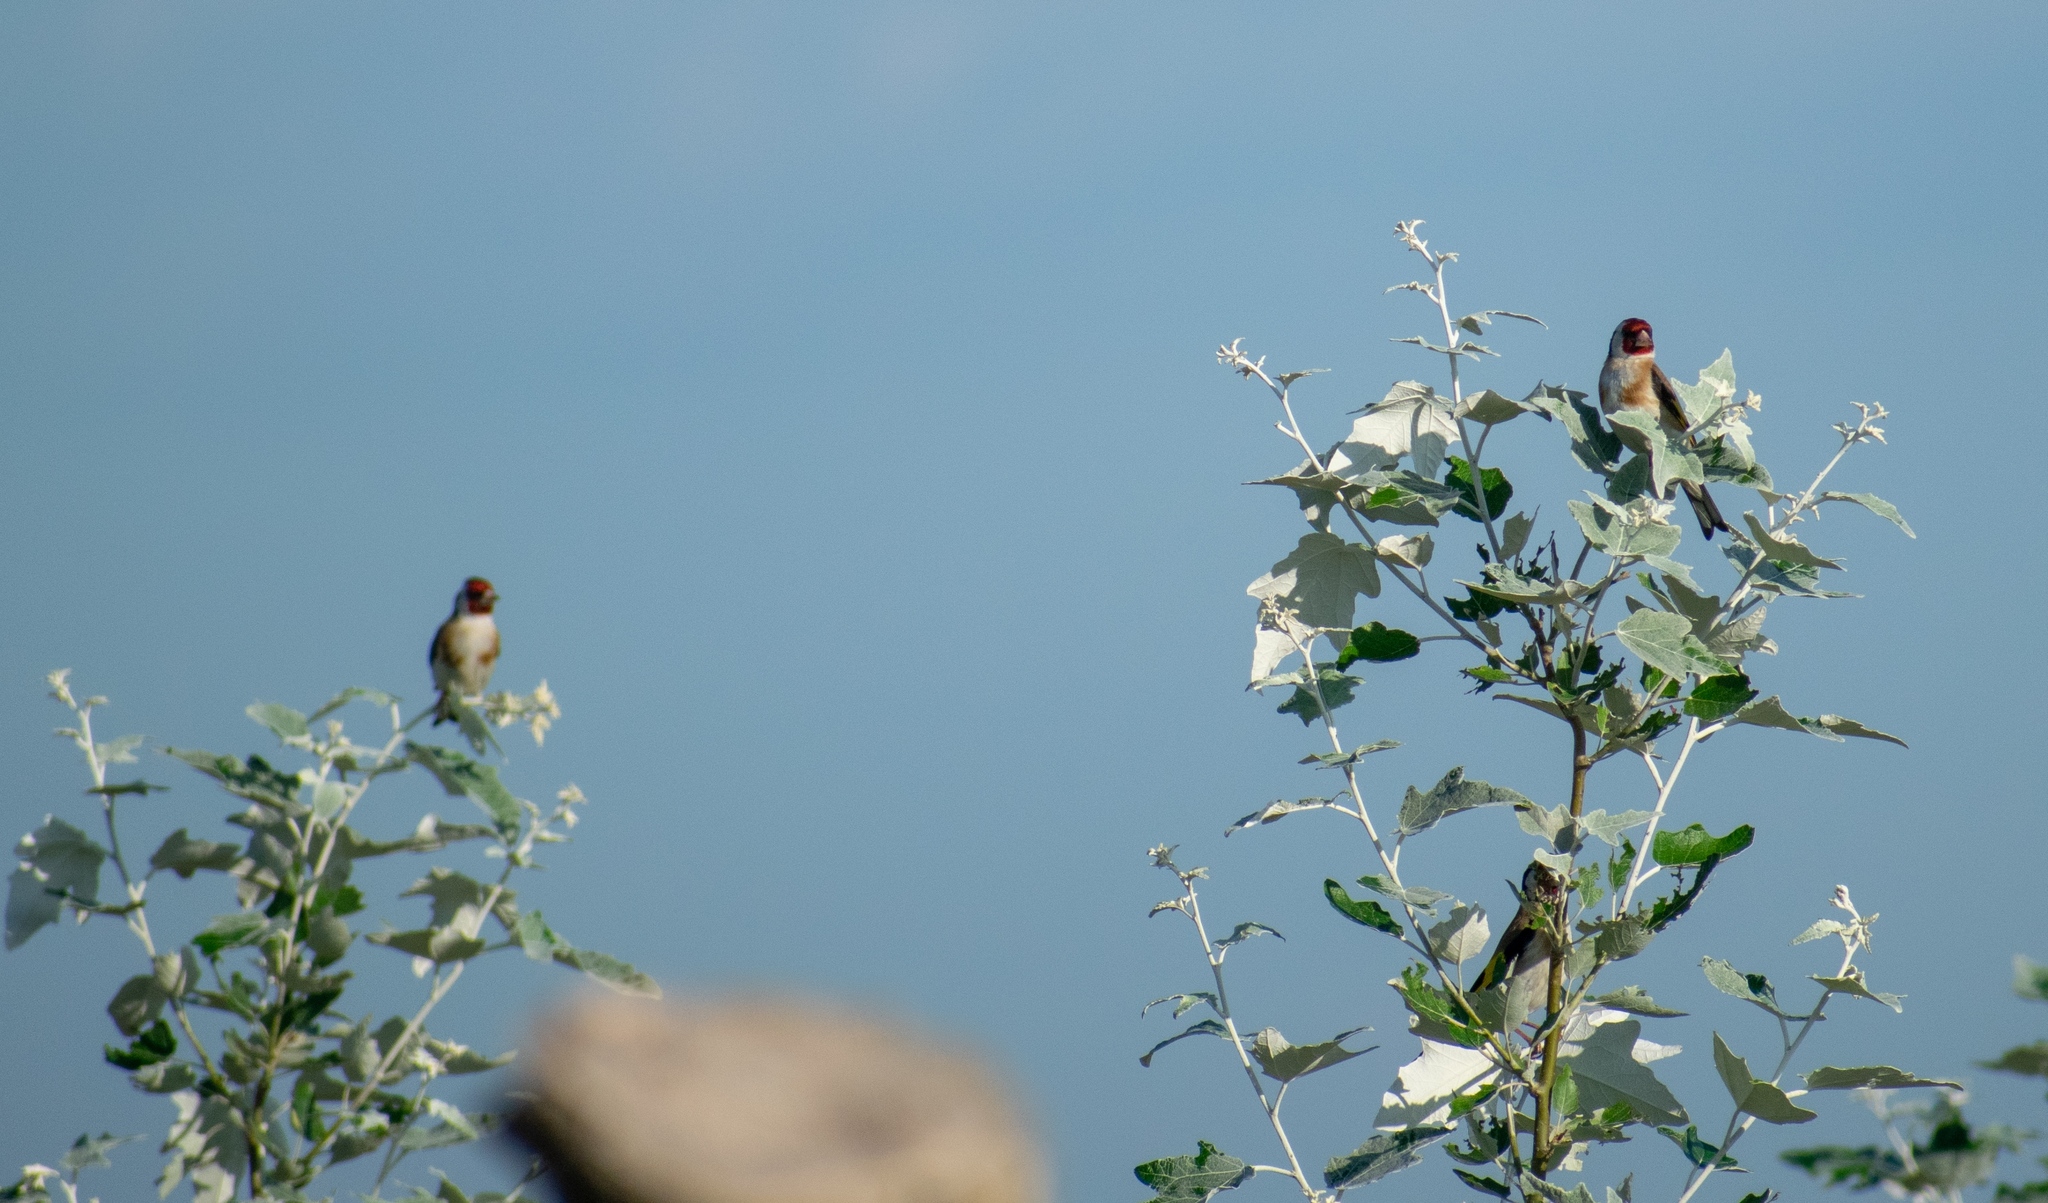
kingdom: Animalia
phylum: Chordata
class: Aves
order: Passeriformes
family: Fringillidae
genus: Carduelis
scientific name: Carduelis carduelis
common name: European goldfinch
